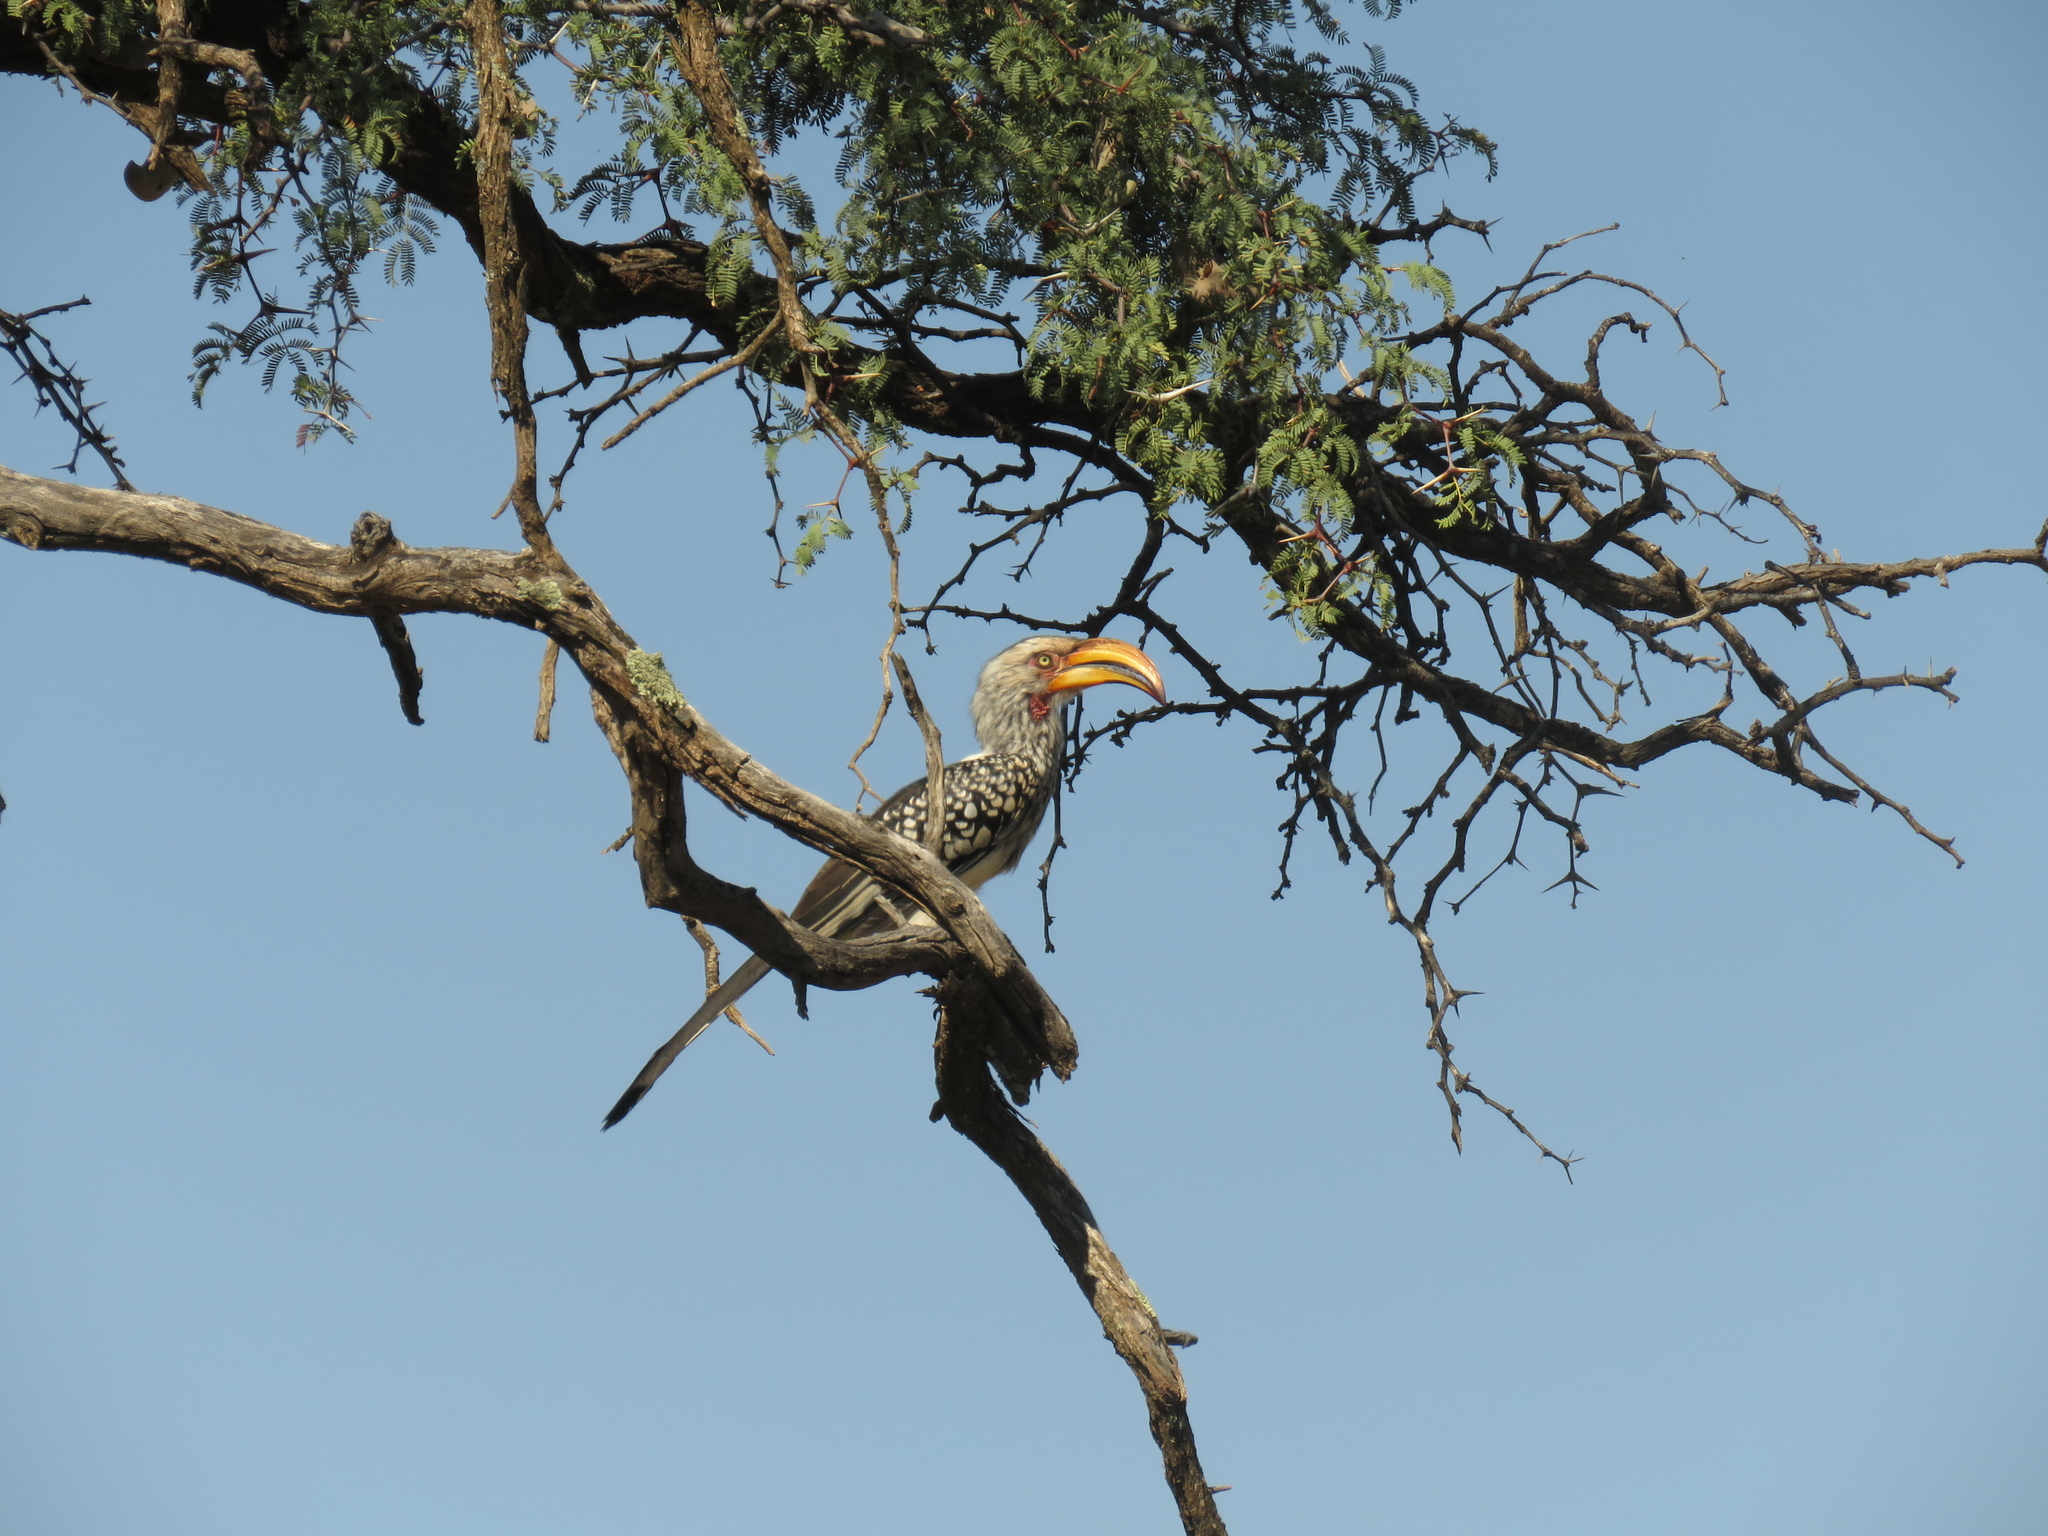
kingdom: Animalia
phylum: Chordata
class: Aves
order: Bucerotiformes
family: Bucerotidae
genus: Tockus
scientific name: Tockus leucomelas
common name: Southern yellow-billed hornbill
